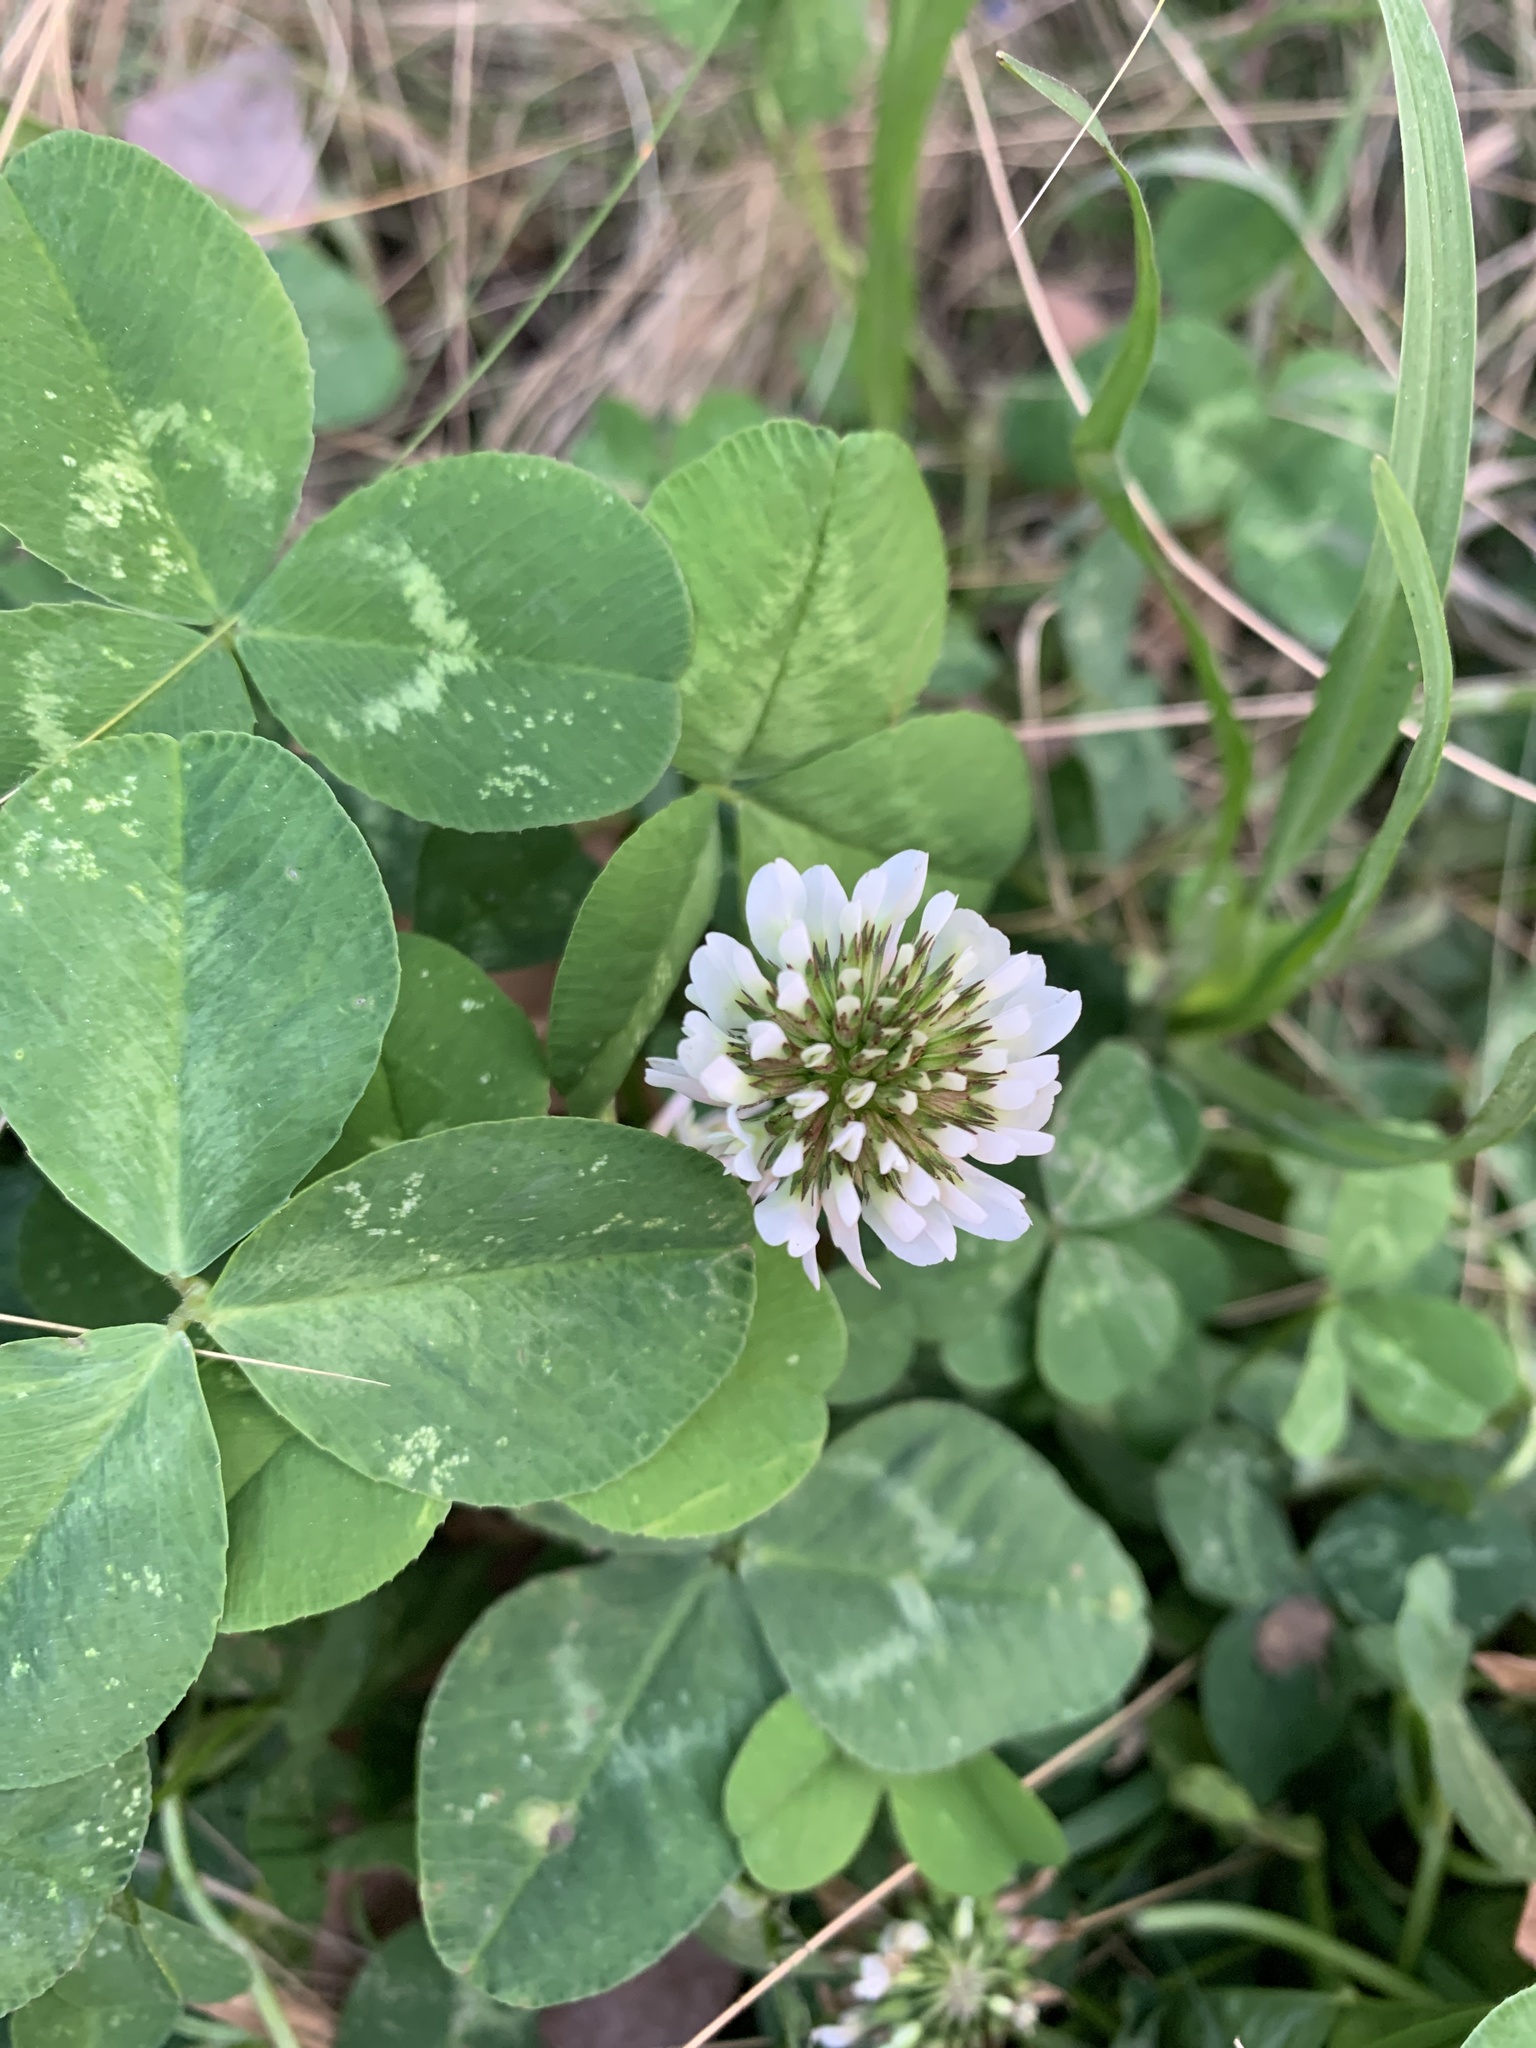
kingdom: Plantae
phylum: Tracheophyta
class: Magnoliopsida
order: Fabales
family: Fabaceae
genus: Trifolium
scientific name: Trifolium repens
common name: White clover
